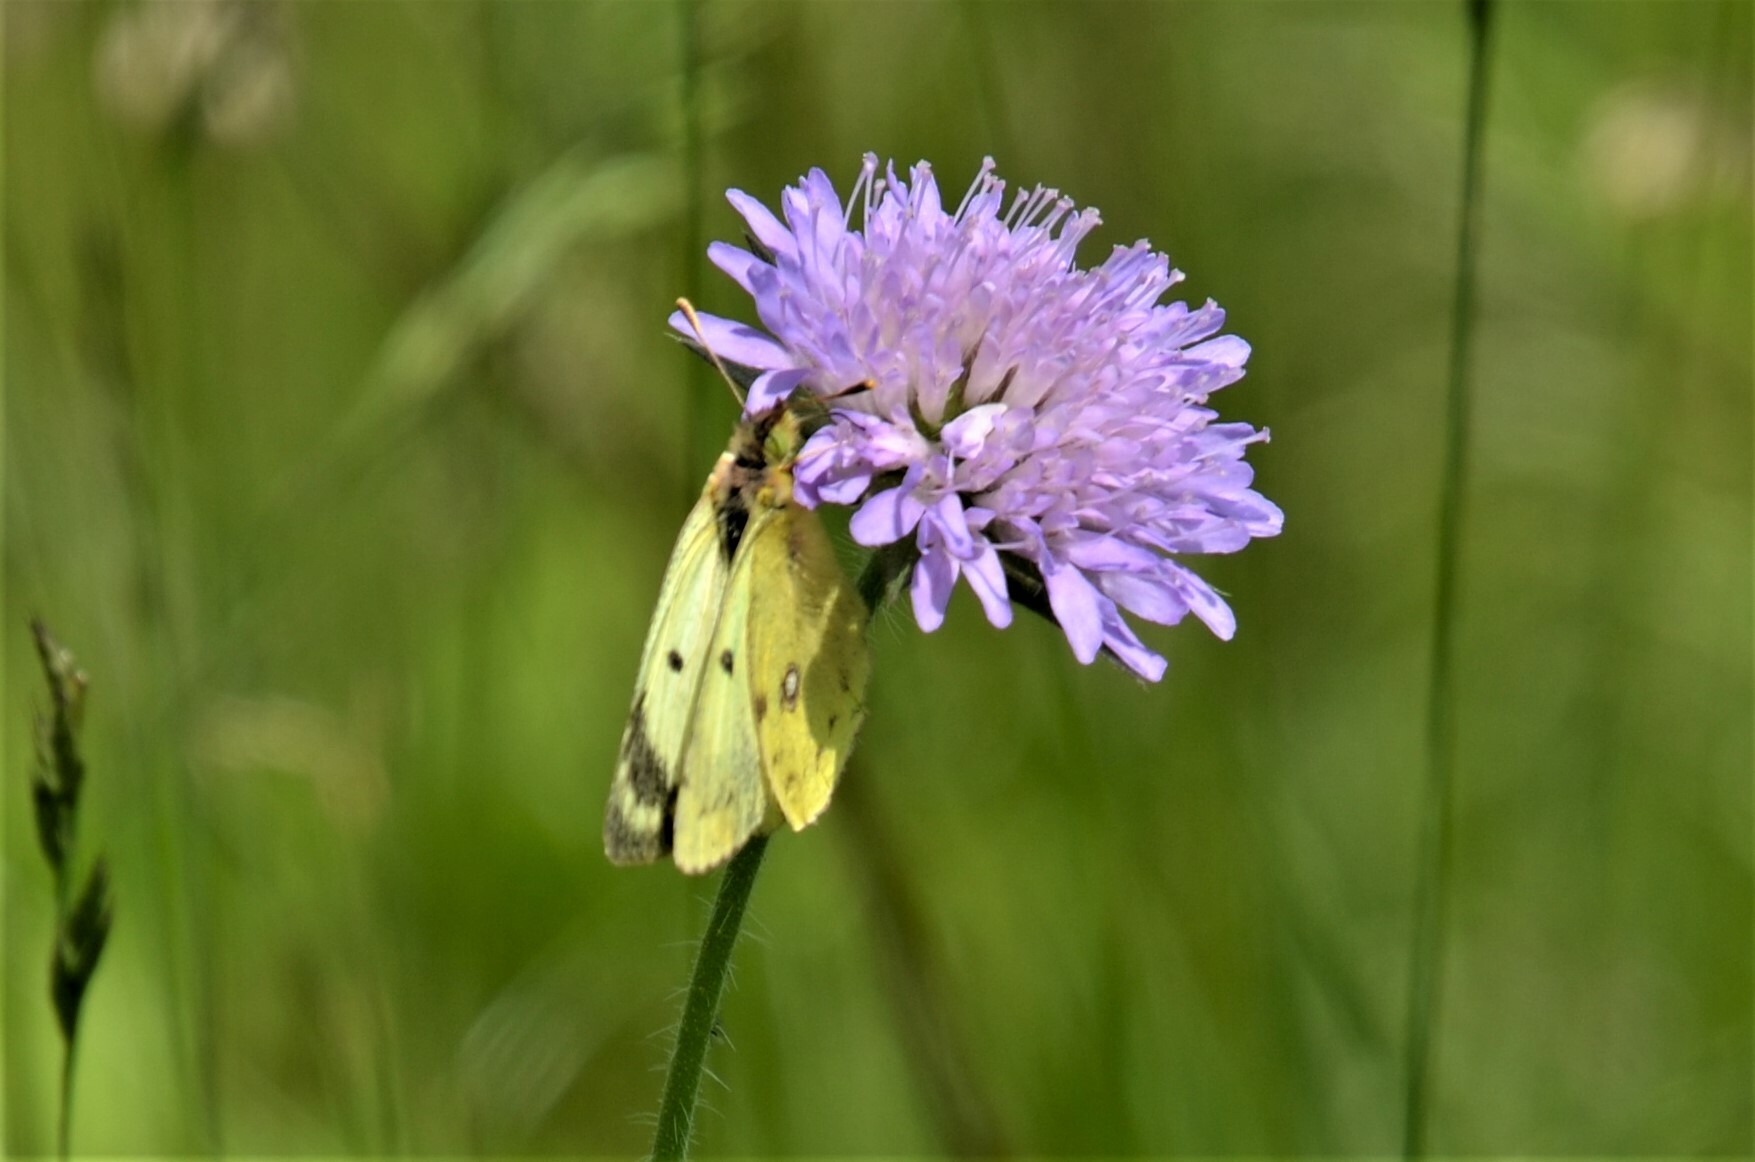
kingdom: Animalia
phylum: Arthropoda
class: Insecta
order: Lepidoptera
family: Pieridae
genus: Colias
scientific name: Colias hyale
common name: Pale clouded yellow
